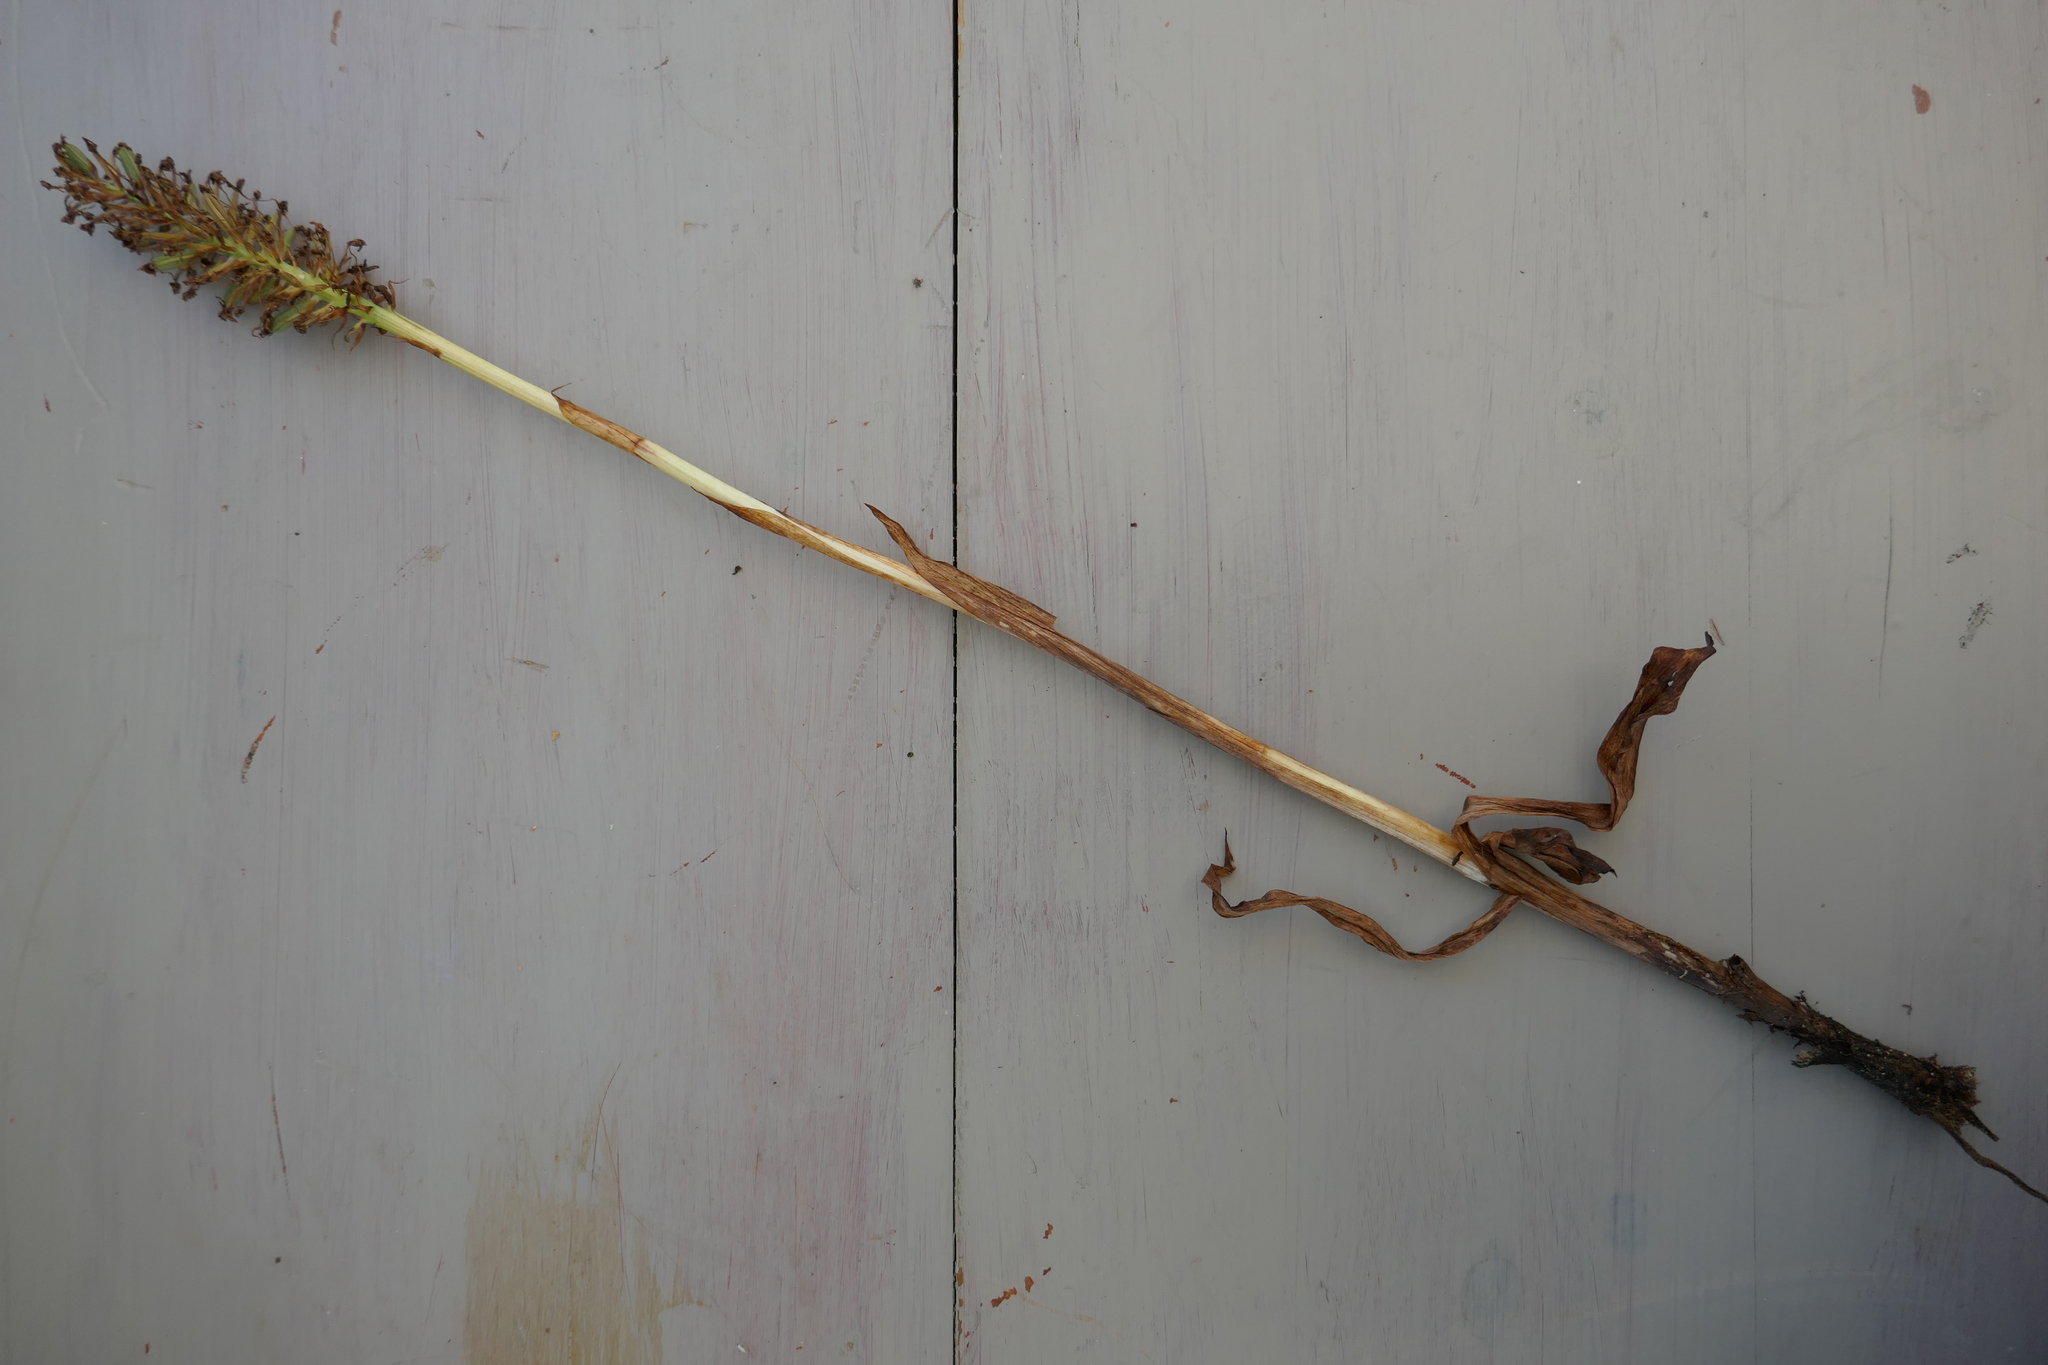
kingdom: Plantae
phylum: Tracheophyta
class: Liliopsida
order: Asparagales
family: Orchidaceae
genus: Anacamptis
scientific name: Anacamptis pyramidalis
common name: Pyramidal orchid
